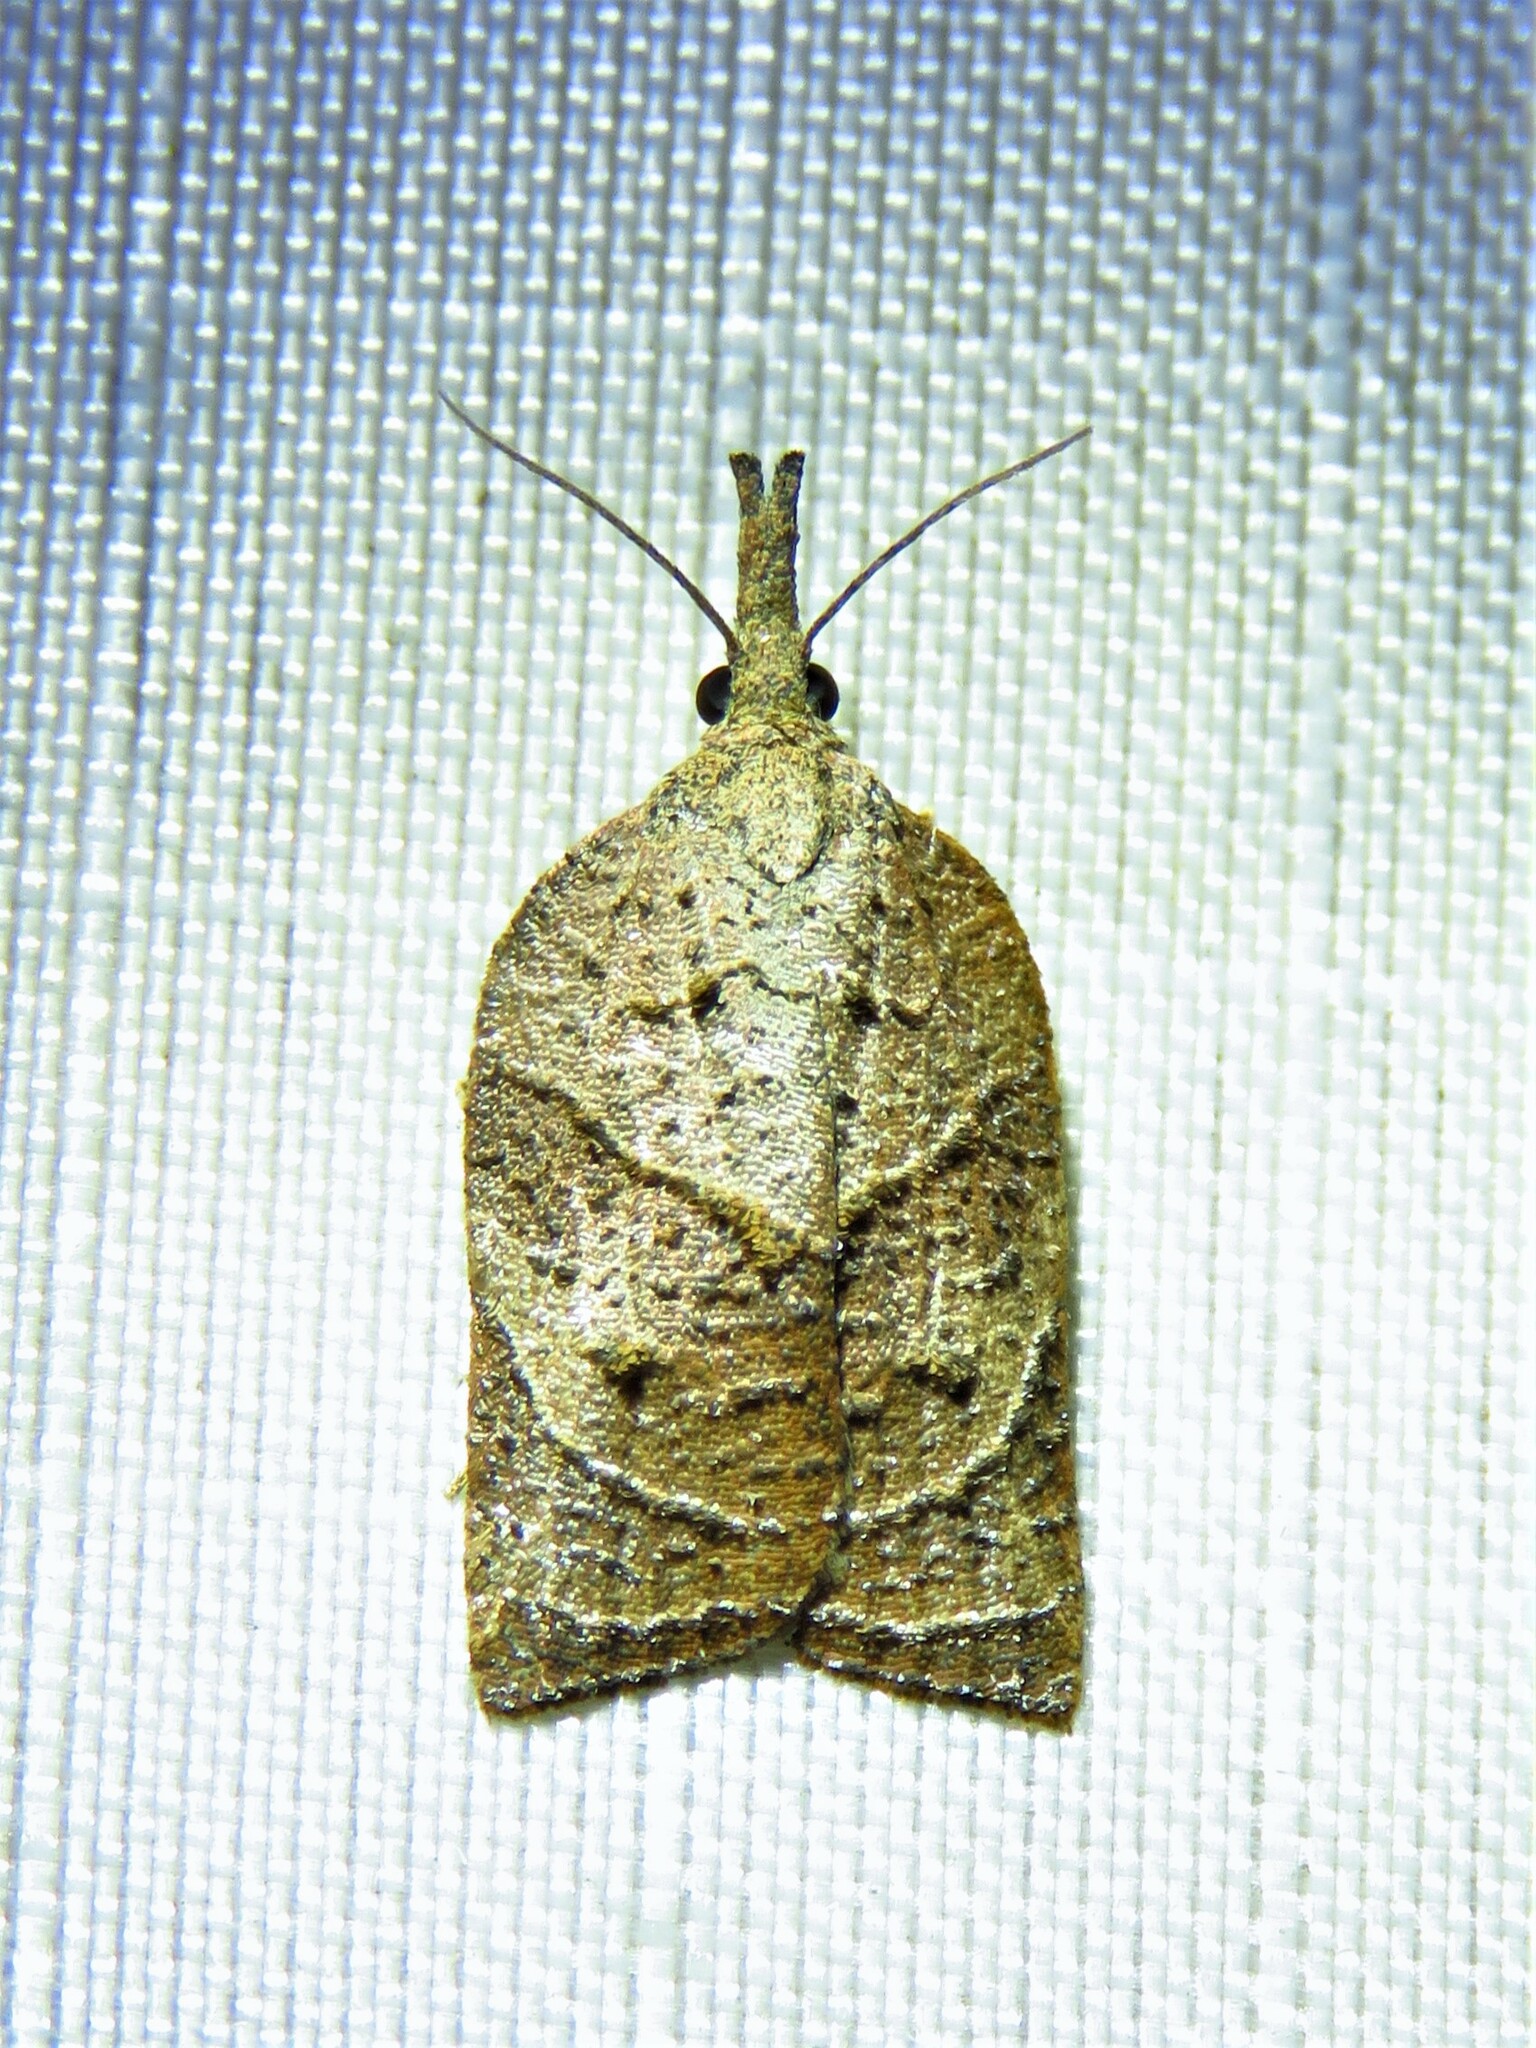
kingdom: Animalia
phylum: Arthropoda
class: Insecta
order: Lepidoptera
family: Tortricidae
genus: Platynota
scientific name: Platynota rostrana
